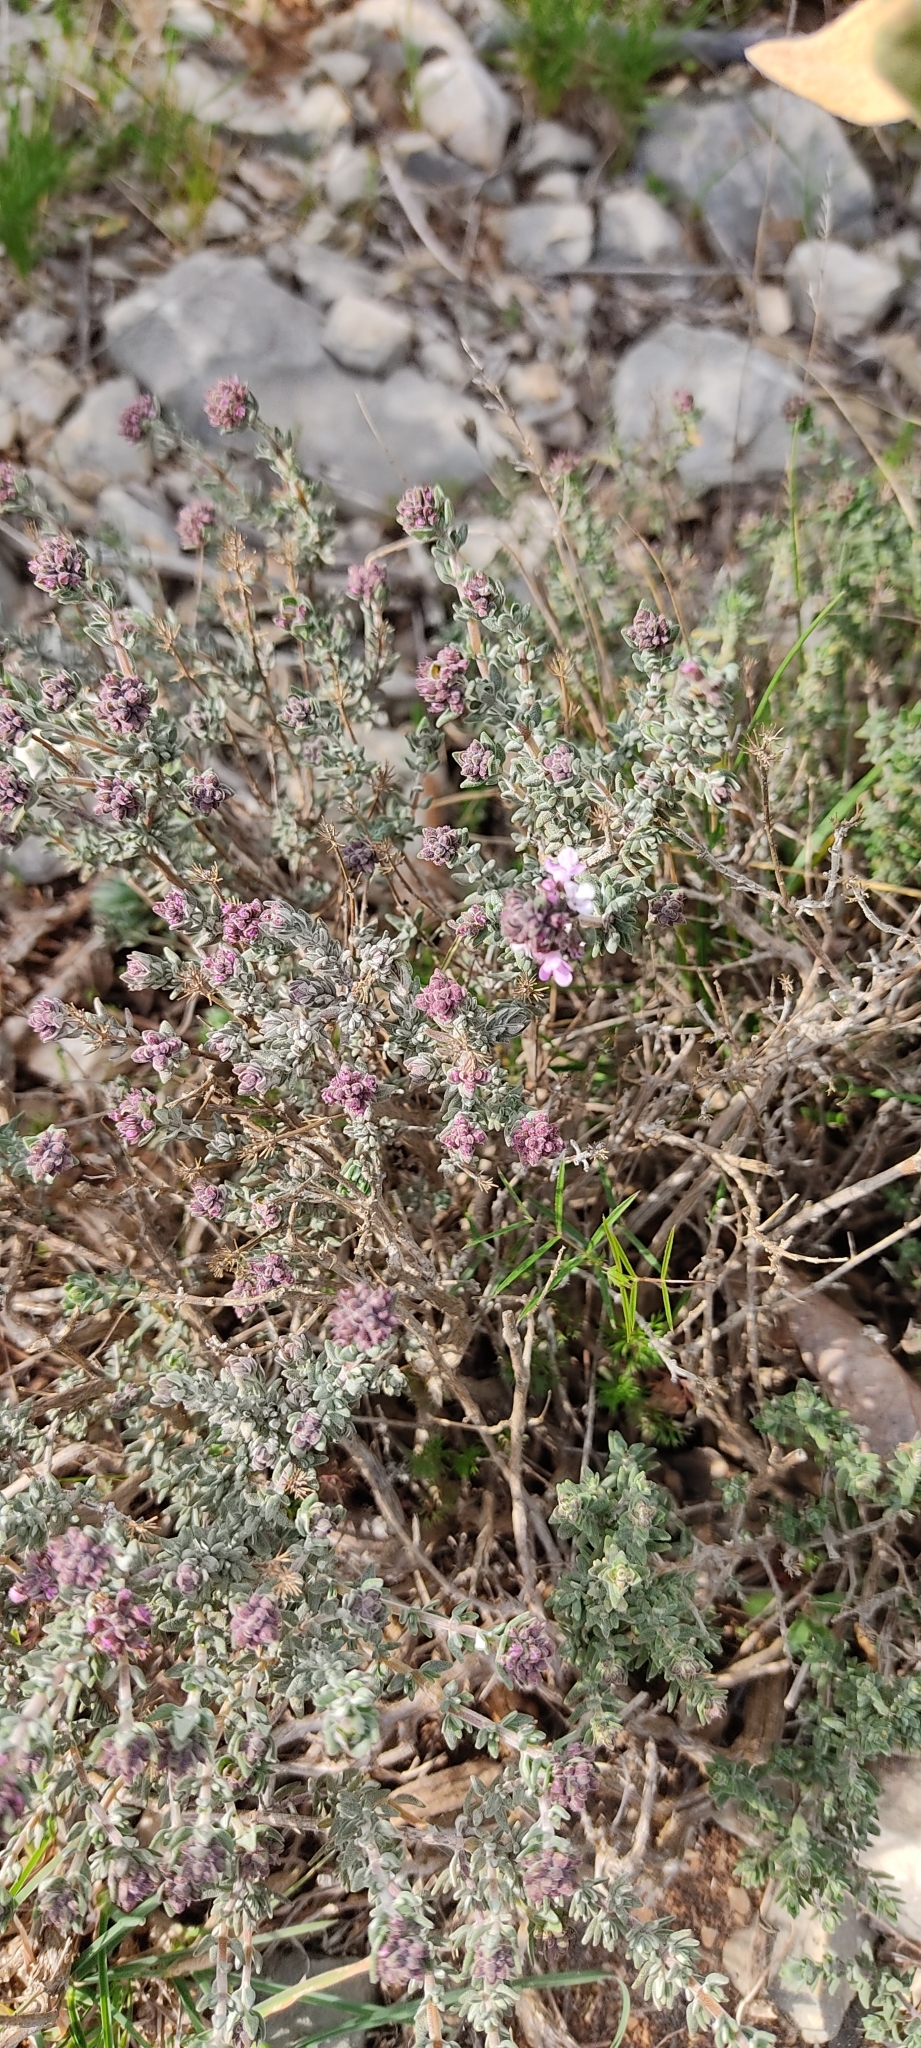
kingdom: Plantae
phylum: Tracheophyta
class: Magnoliopsida
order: Lamiales
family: Lamiaceae
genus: Thymus
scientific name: Thymus vulgaris
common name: Garden thyme
